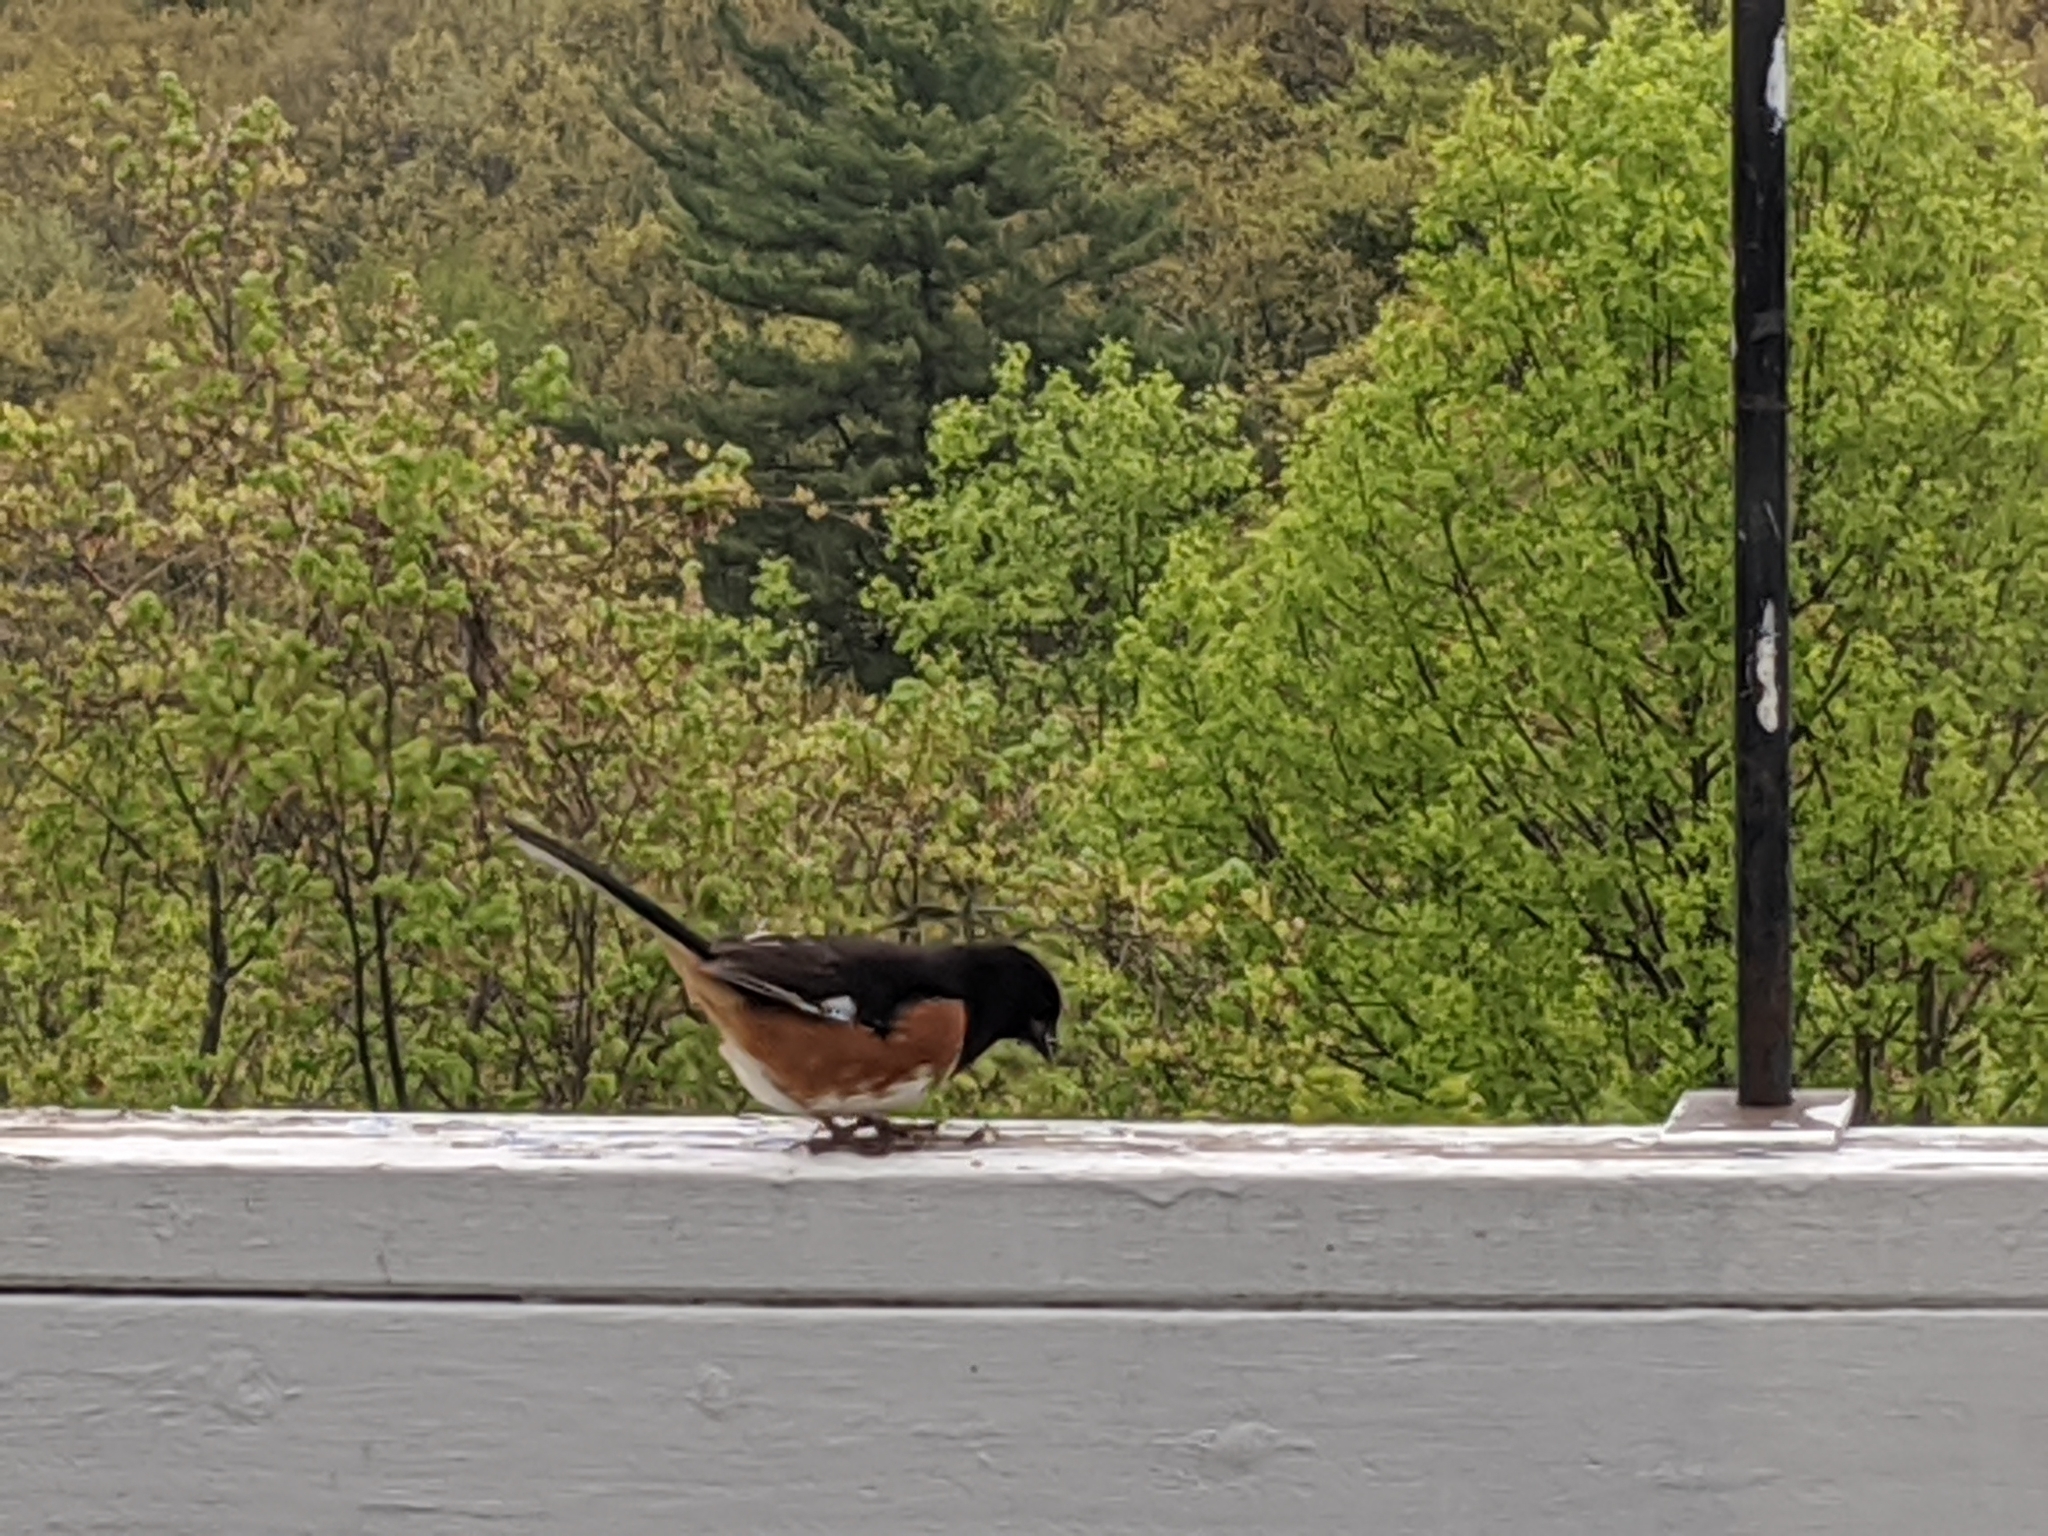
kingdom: Animalia
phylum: Chordata
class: Aves
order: Passeriformes
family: Passerellidae
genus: Pipilo
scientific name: Pipilo erythrophthalmus
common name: Eastern towhee
